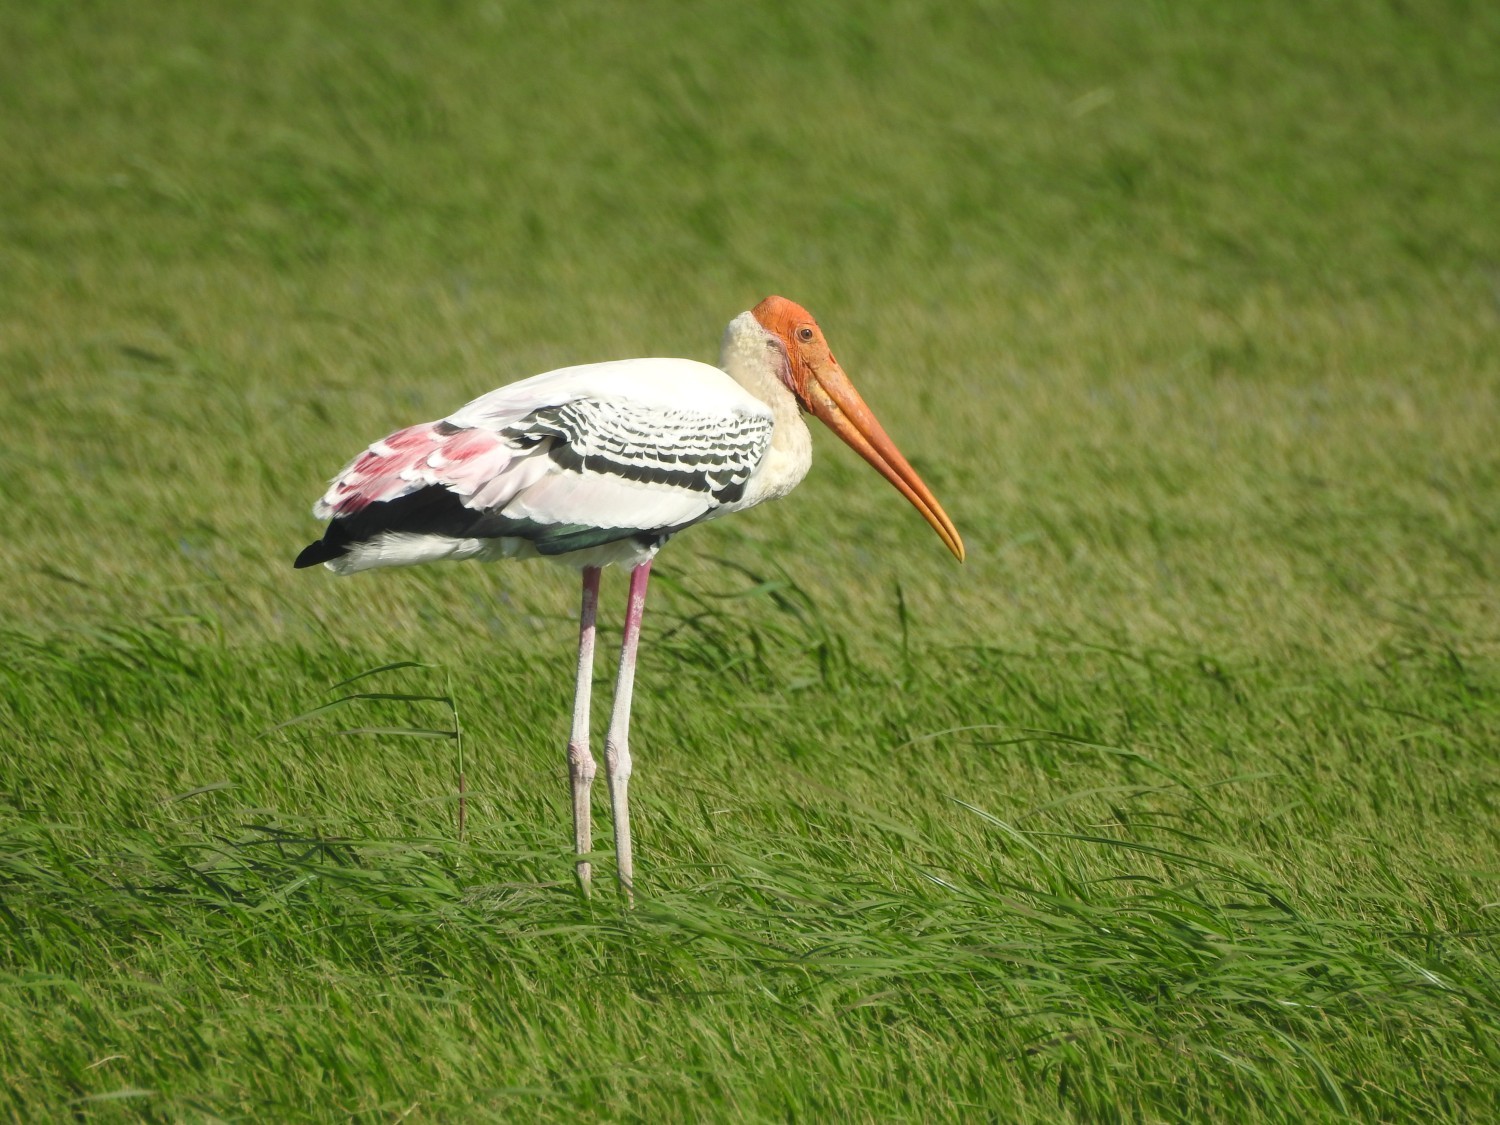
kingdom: Animalia
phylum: Chordata
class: Aves
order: Ciconiiformes
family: Ciconiidae
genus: Mycteria
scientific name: Mycteria leucocephala
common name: Painted stork
